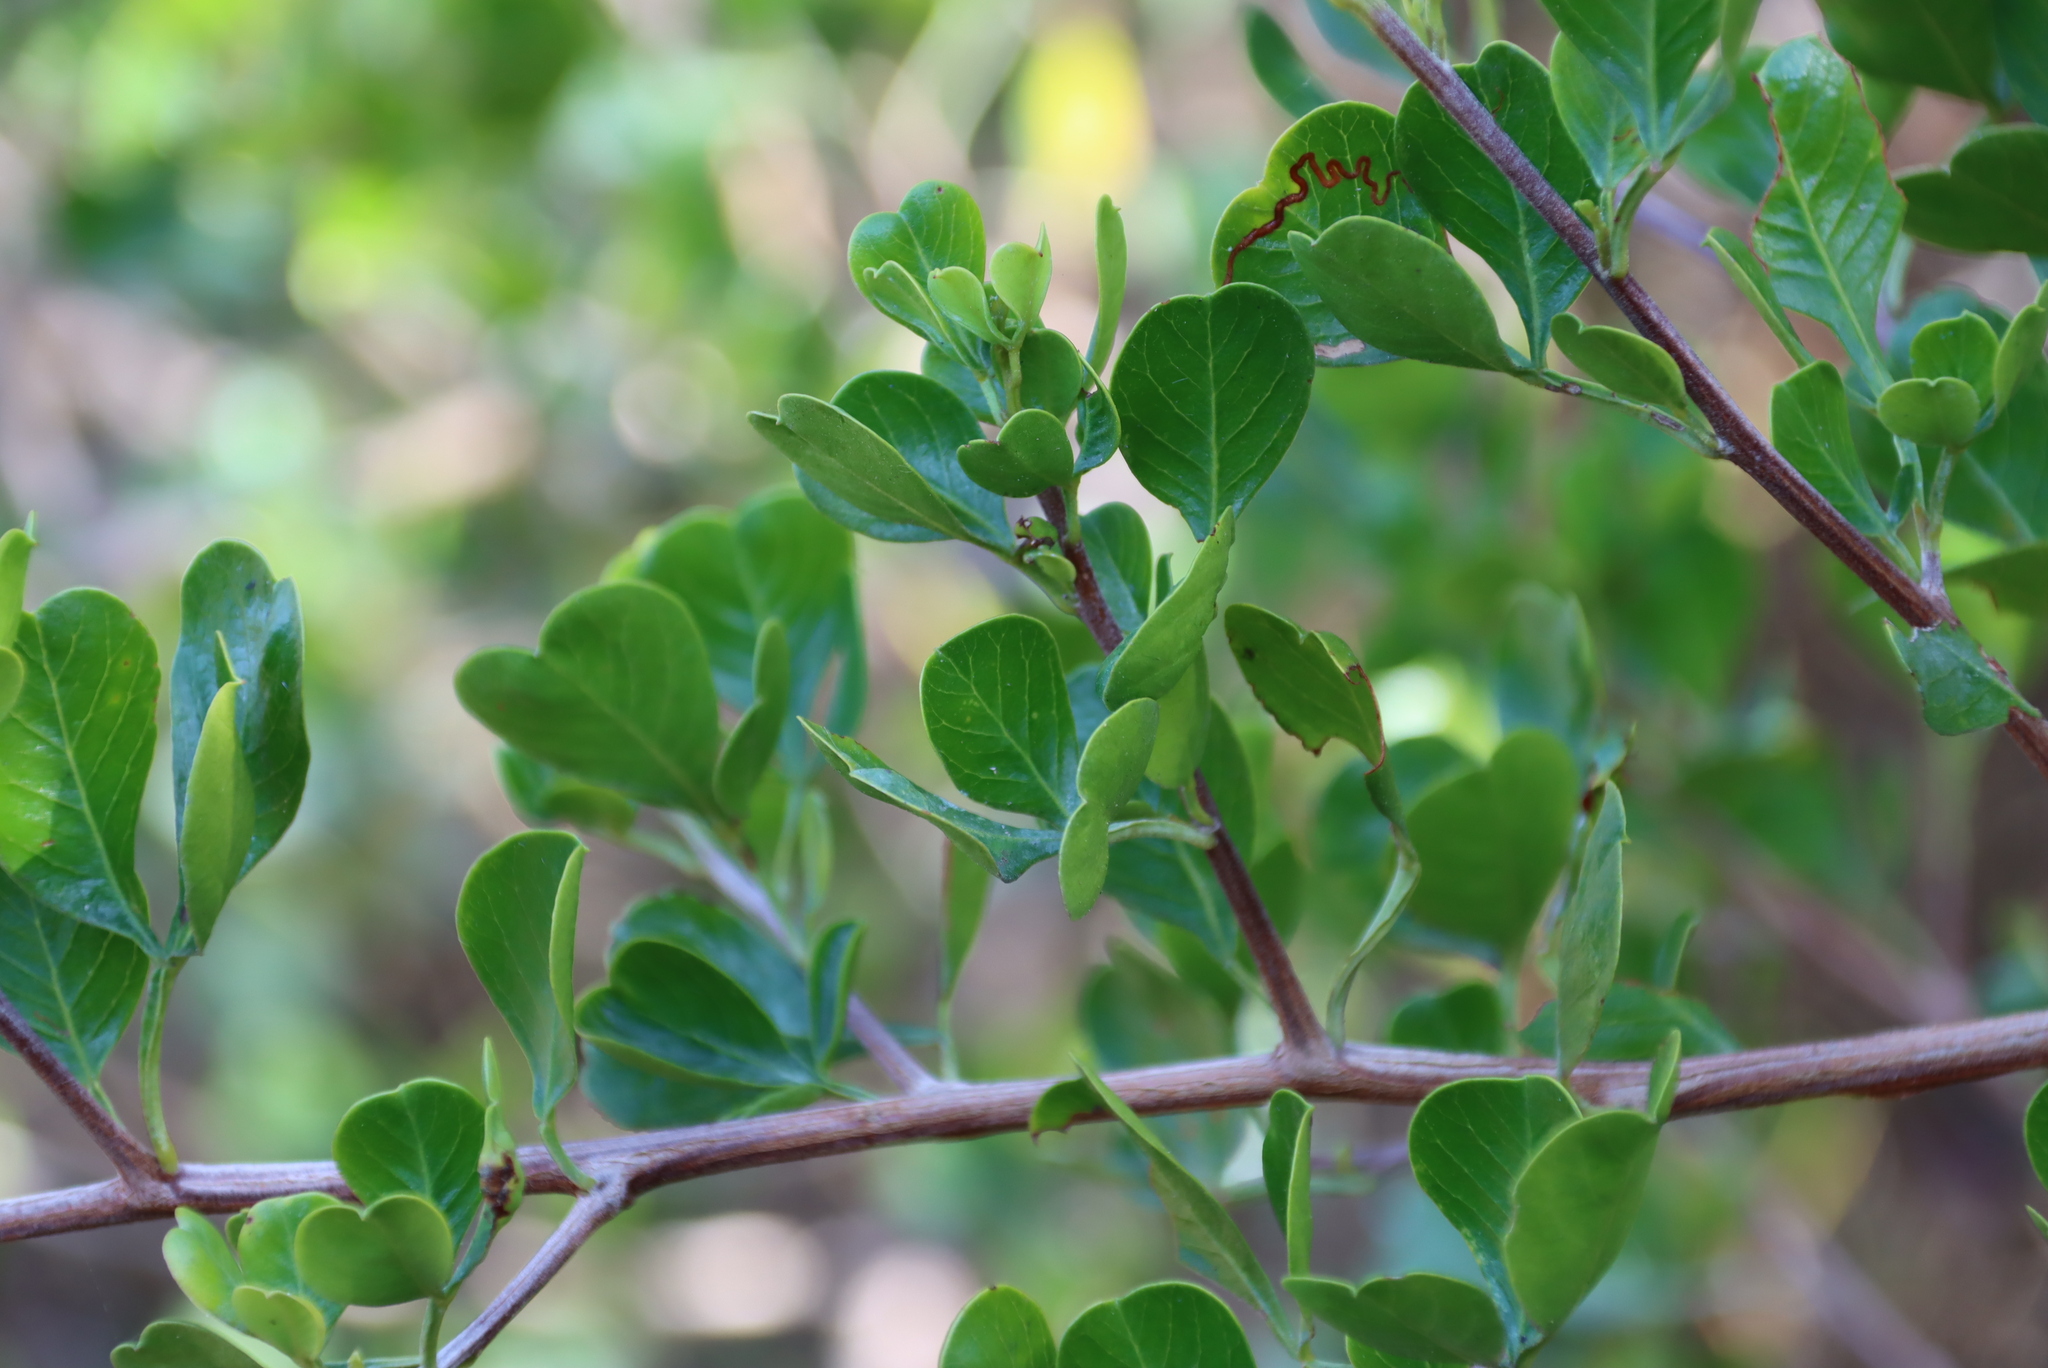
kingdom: Plantae
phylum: Tracheophyta
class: Magnoliopsida
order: Sapindales
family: Anacardiaceae
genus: Searsia
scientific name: Searsia glauca
